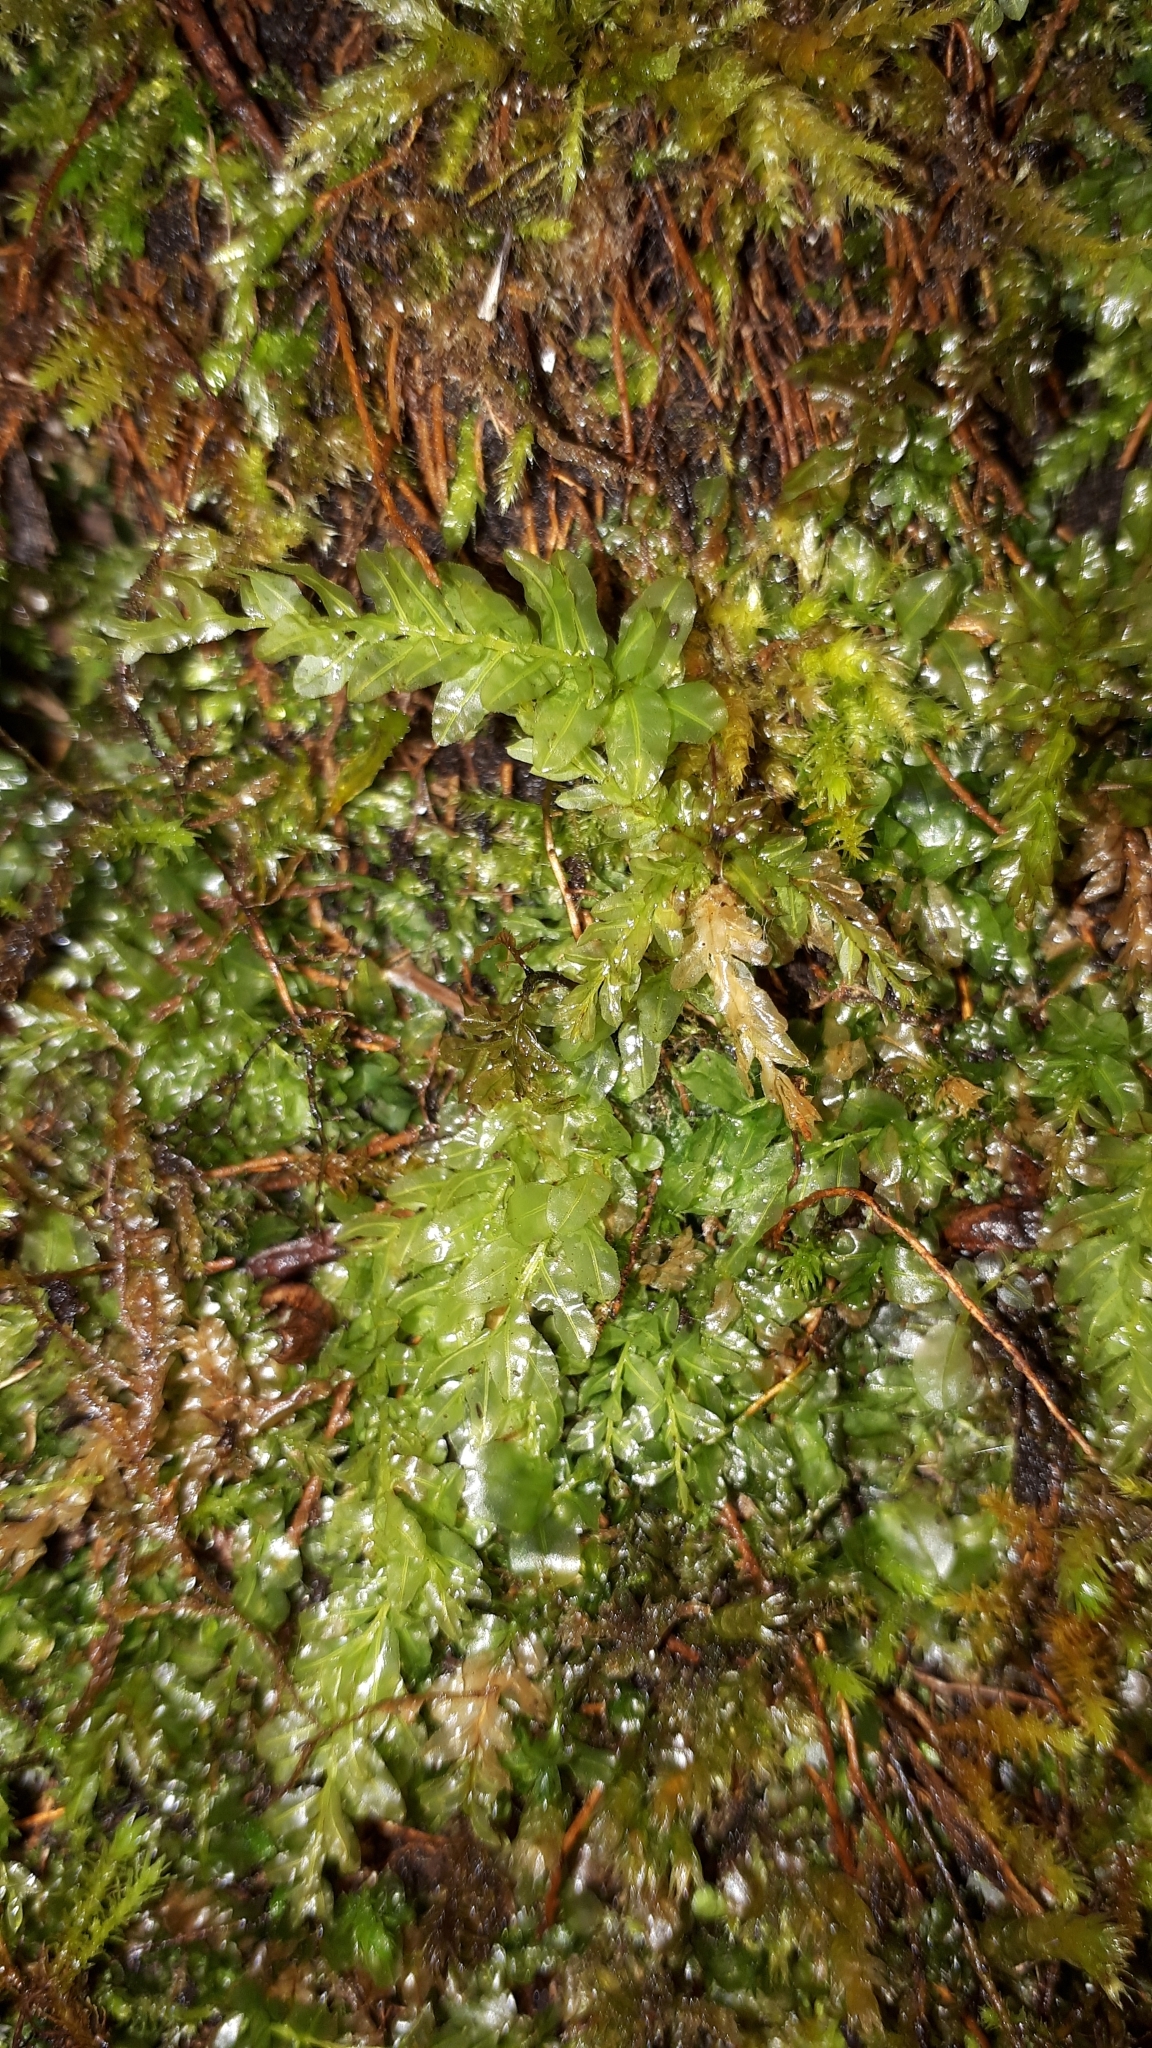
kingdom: Plantae
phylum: Bryophyta
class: Bryopsida
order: Bryales
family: Mniaceae
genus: Plagiomnium
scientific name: Plagiomnium undulatum
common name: Hart's-tongue thyme-moss
